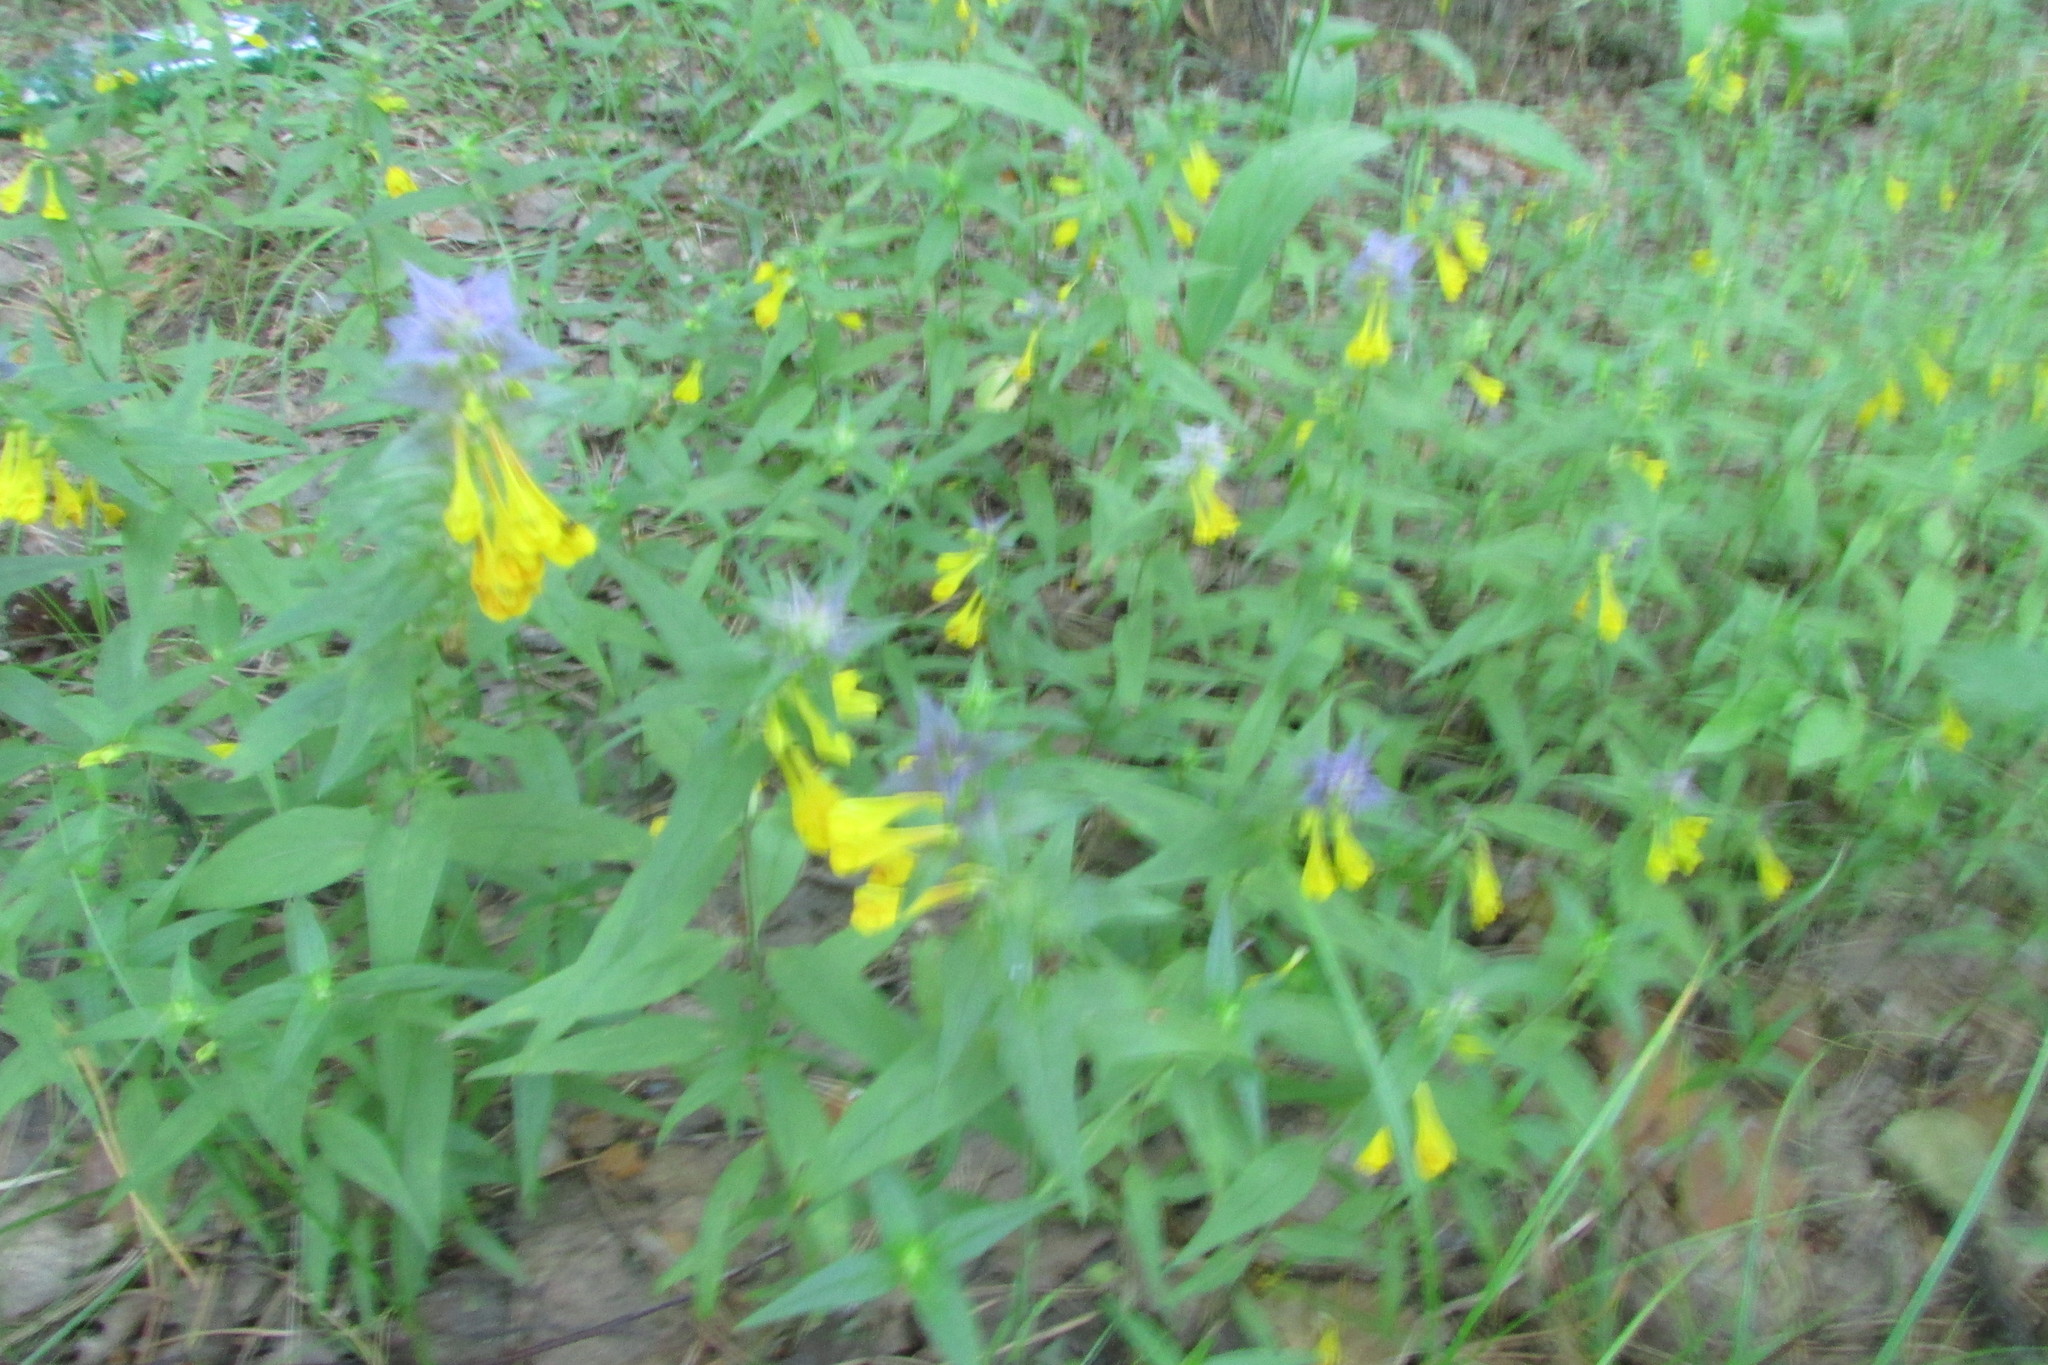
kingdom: Plantae
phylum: Tracheophyta
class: Magnoliopsida
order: Lamiales
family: Orobanchaceae
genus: Melampyrum
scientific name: Melampyrum nemorosum
